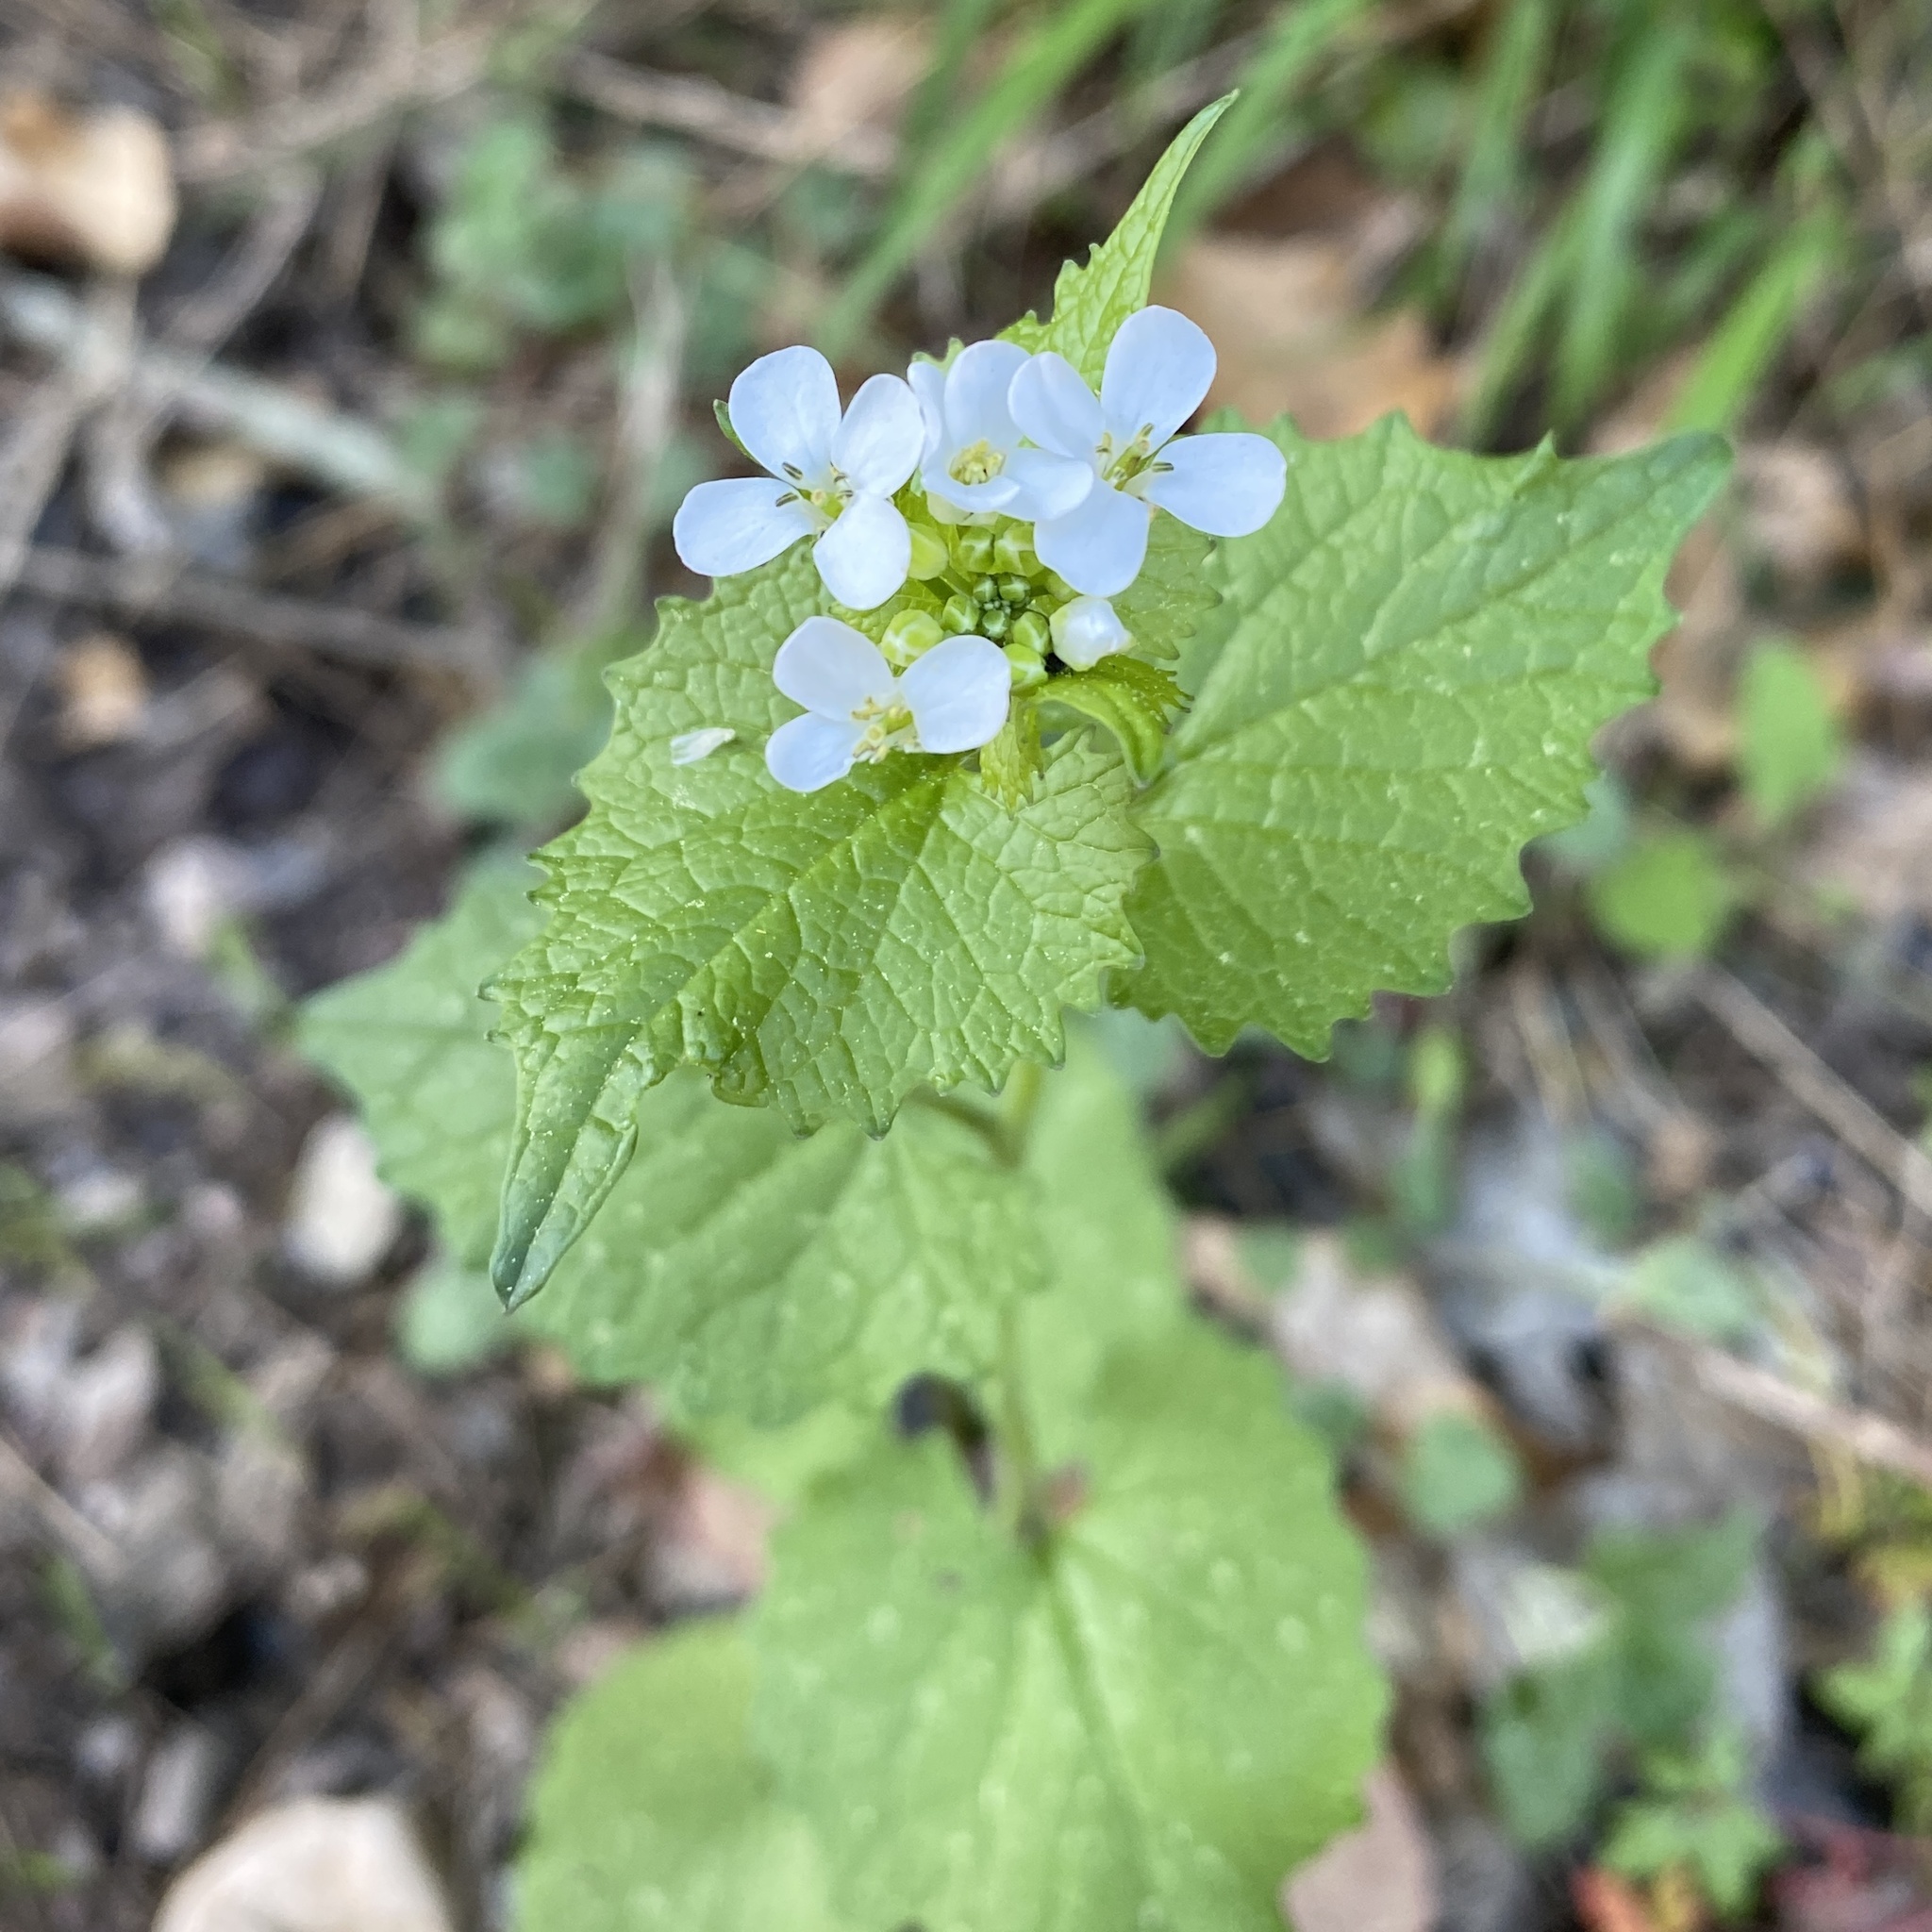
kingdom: Plantae
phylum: Tracheophyta
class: Magnoliopsida
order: Brassicales
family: Brassicaceae
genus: Alliaria
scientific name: Alliaria petiolata
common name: Garlic mustard
